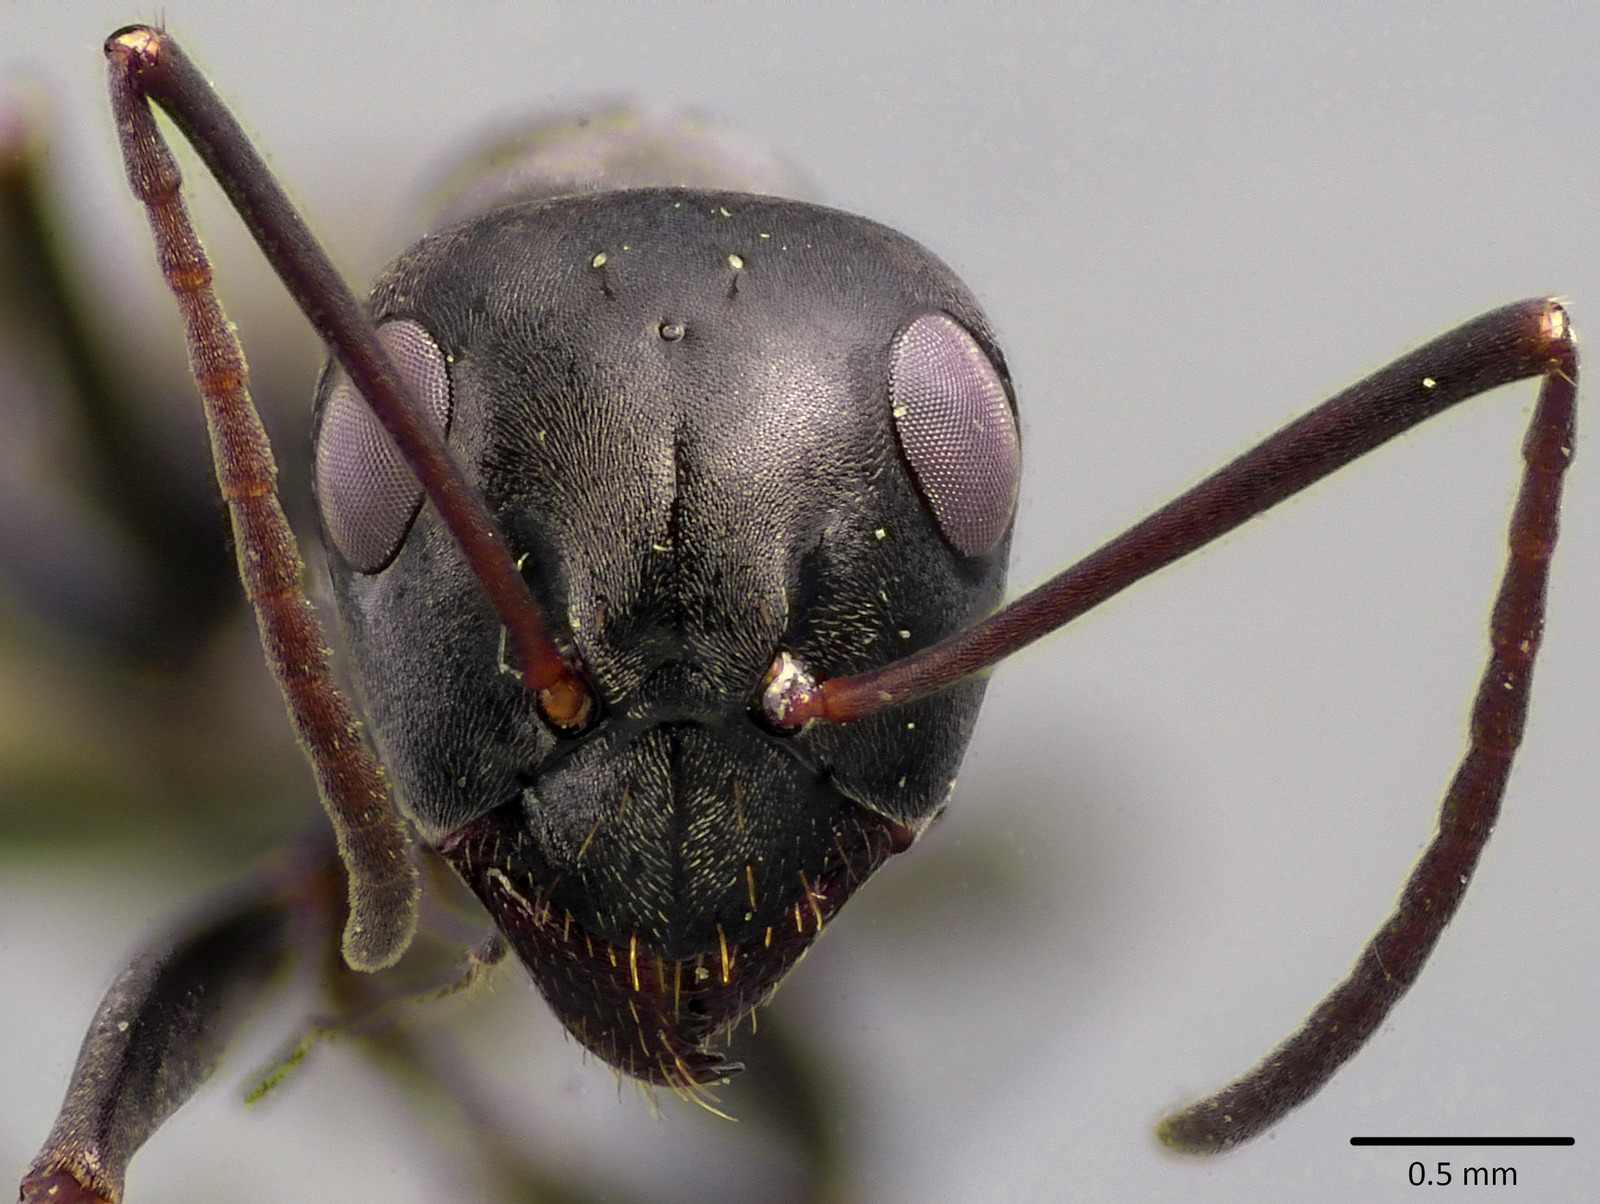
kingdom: Animalia
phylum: Arthropoda
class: Insecta
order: Hymenoptera
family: Formicidae
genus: Formica
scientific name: Formica subsericea
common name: Silky field ant
